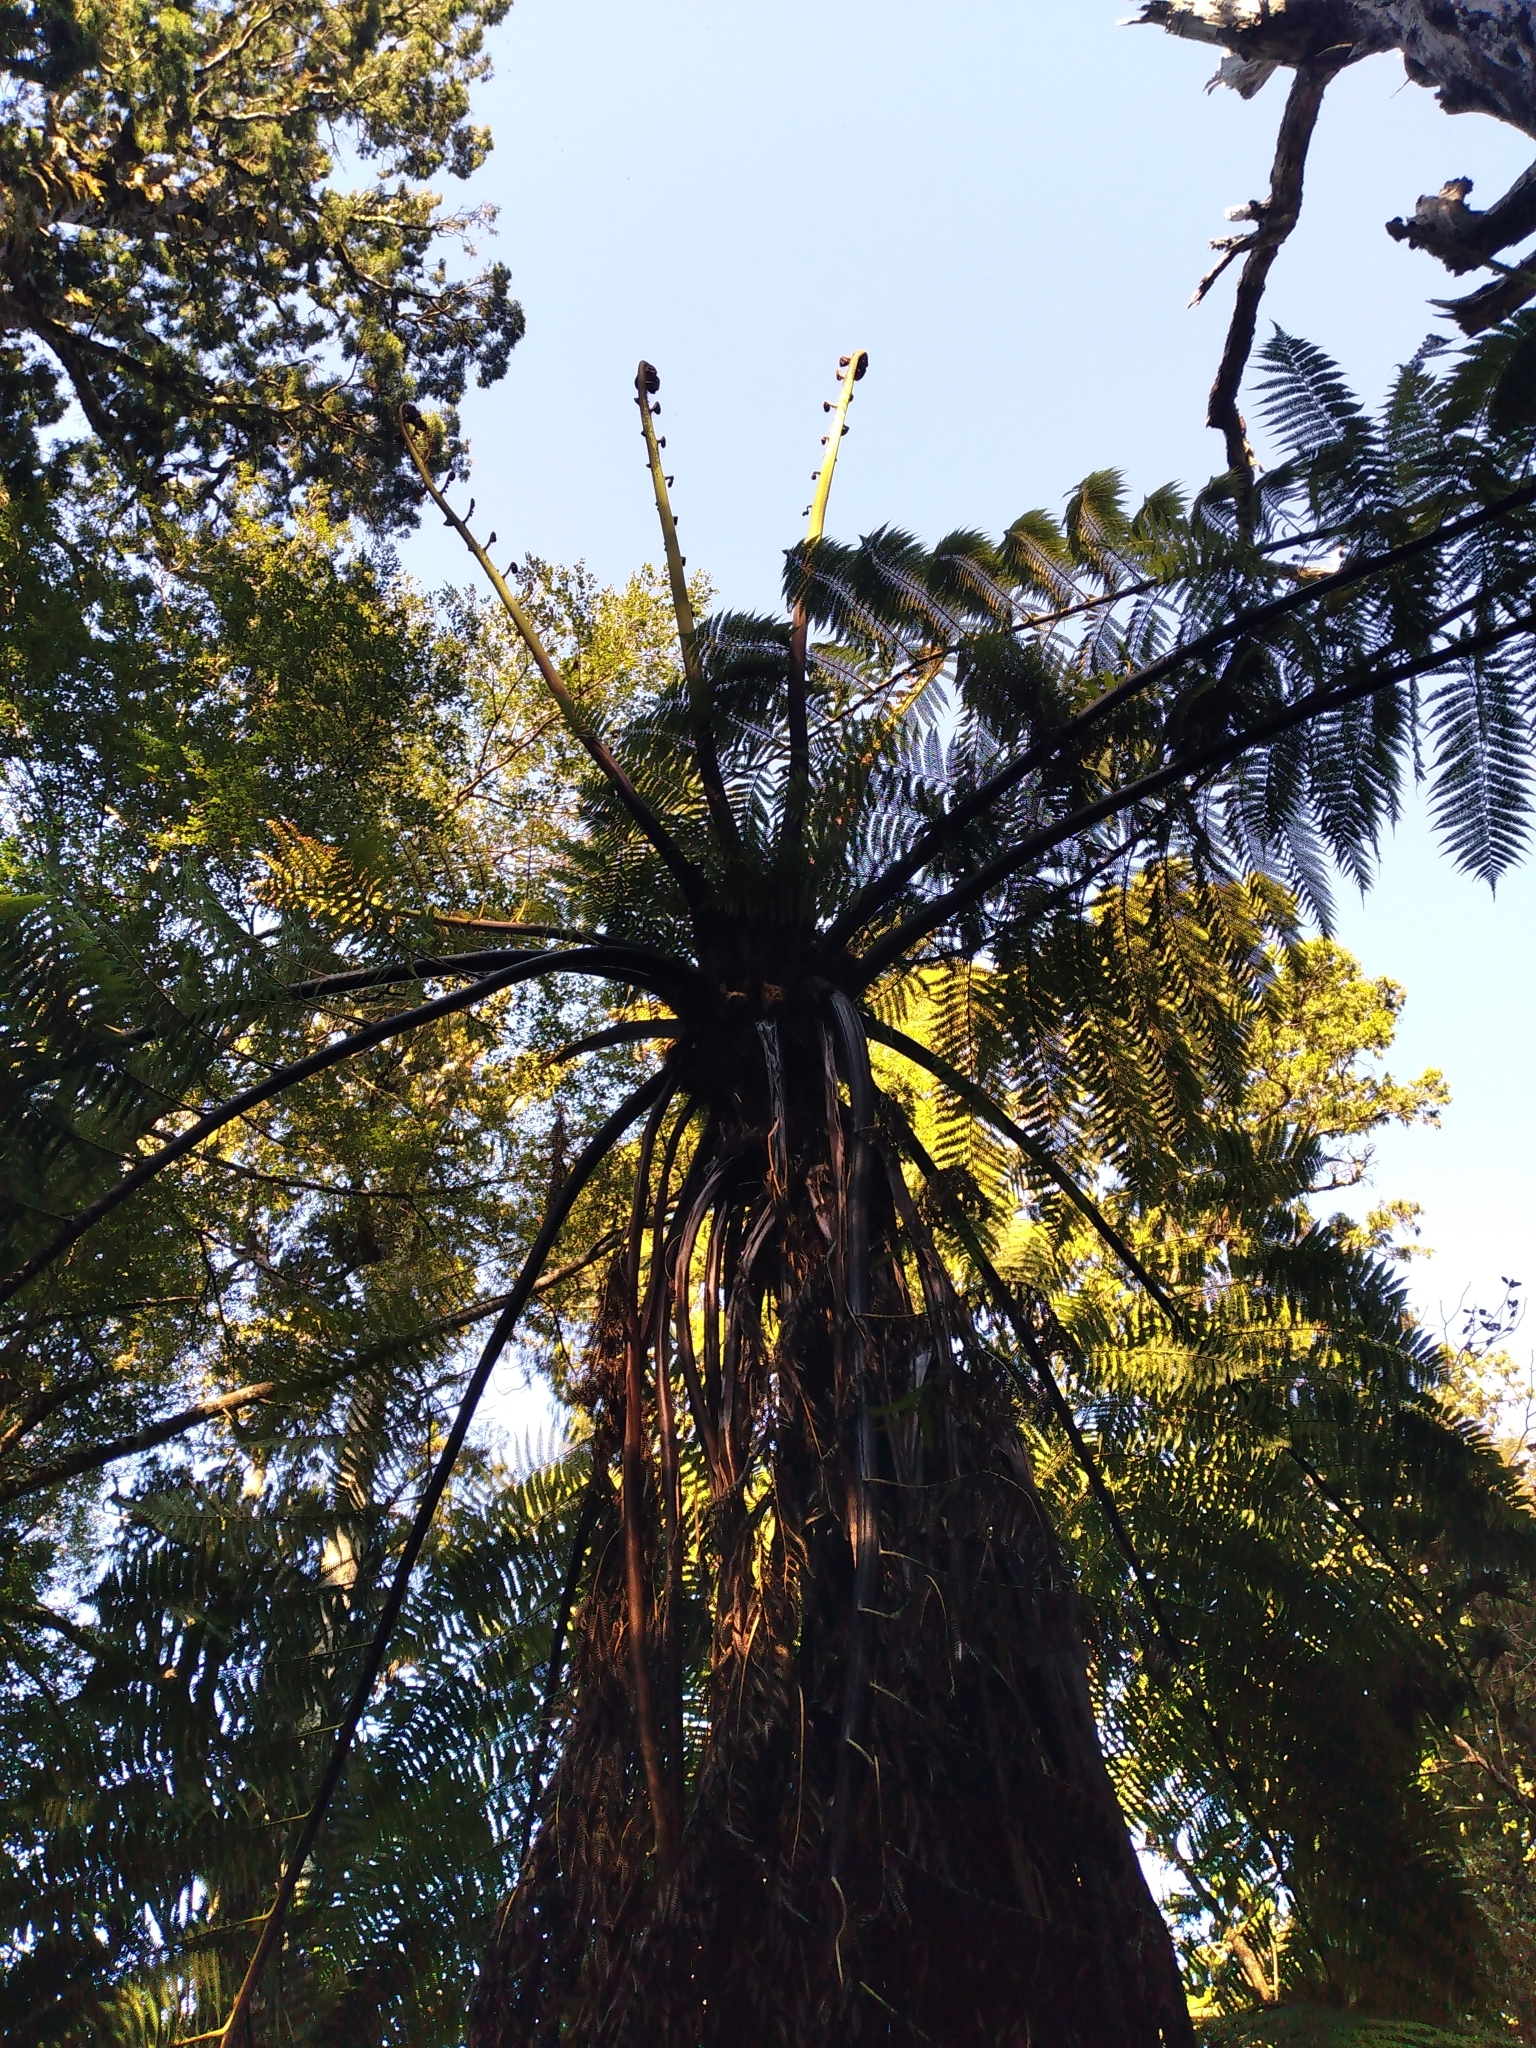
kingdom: Plantae
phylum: Tracheophyta
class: Polypodiopsida
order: Cyatheales
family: Cyatheaceae
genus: Sphaeropteris
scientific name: Sphaeropteris medullaris
